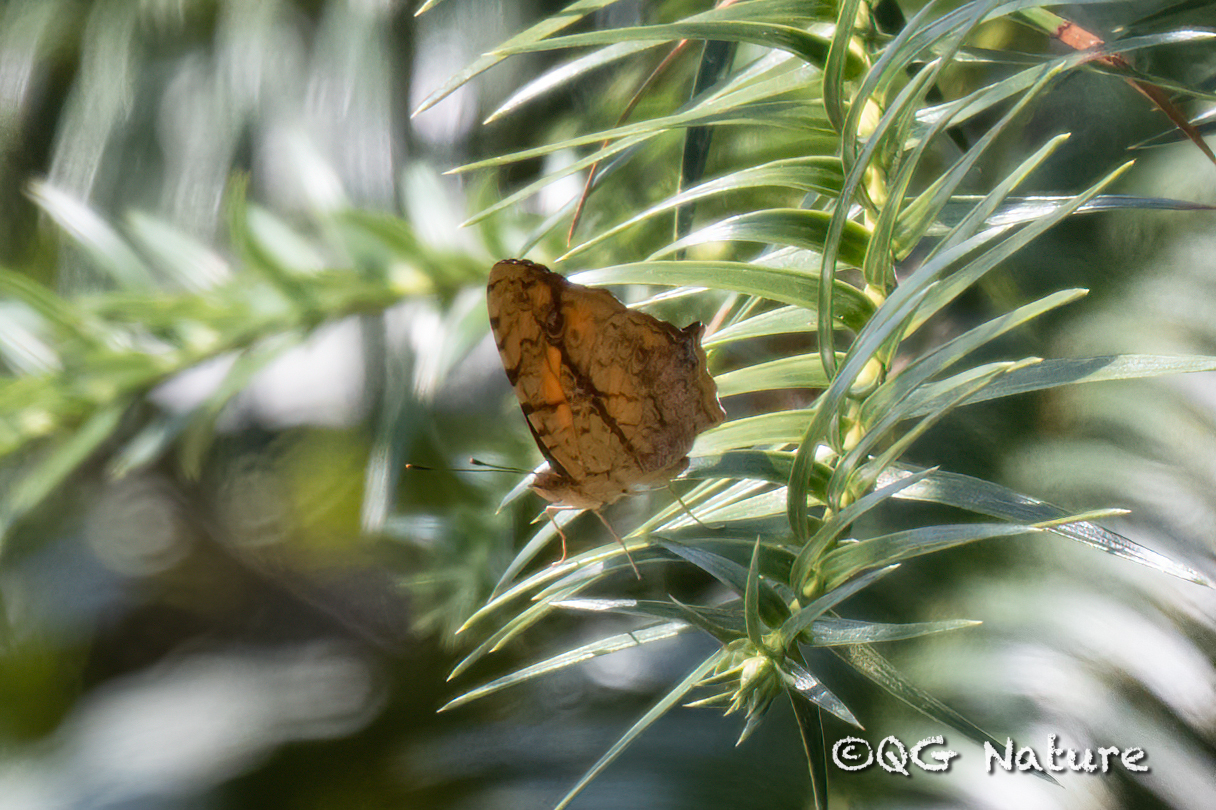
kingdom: Animalia
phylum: Arthropoda
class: Insecta
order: Lepidoptera
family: Nymphalidae
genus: Symbrenthia
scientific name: Symbrenthia hypselis
